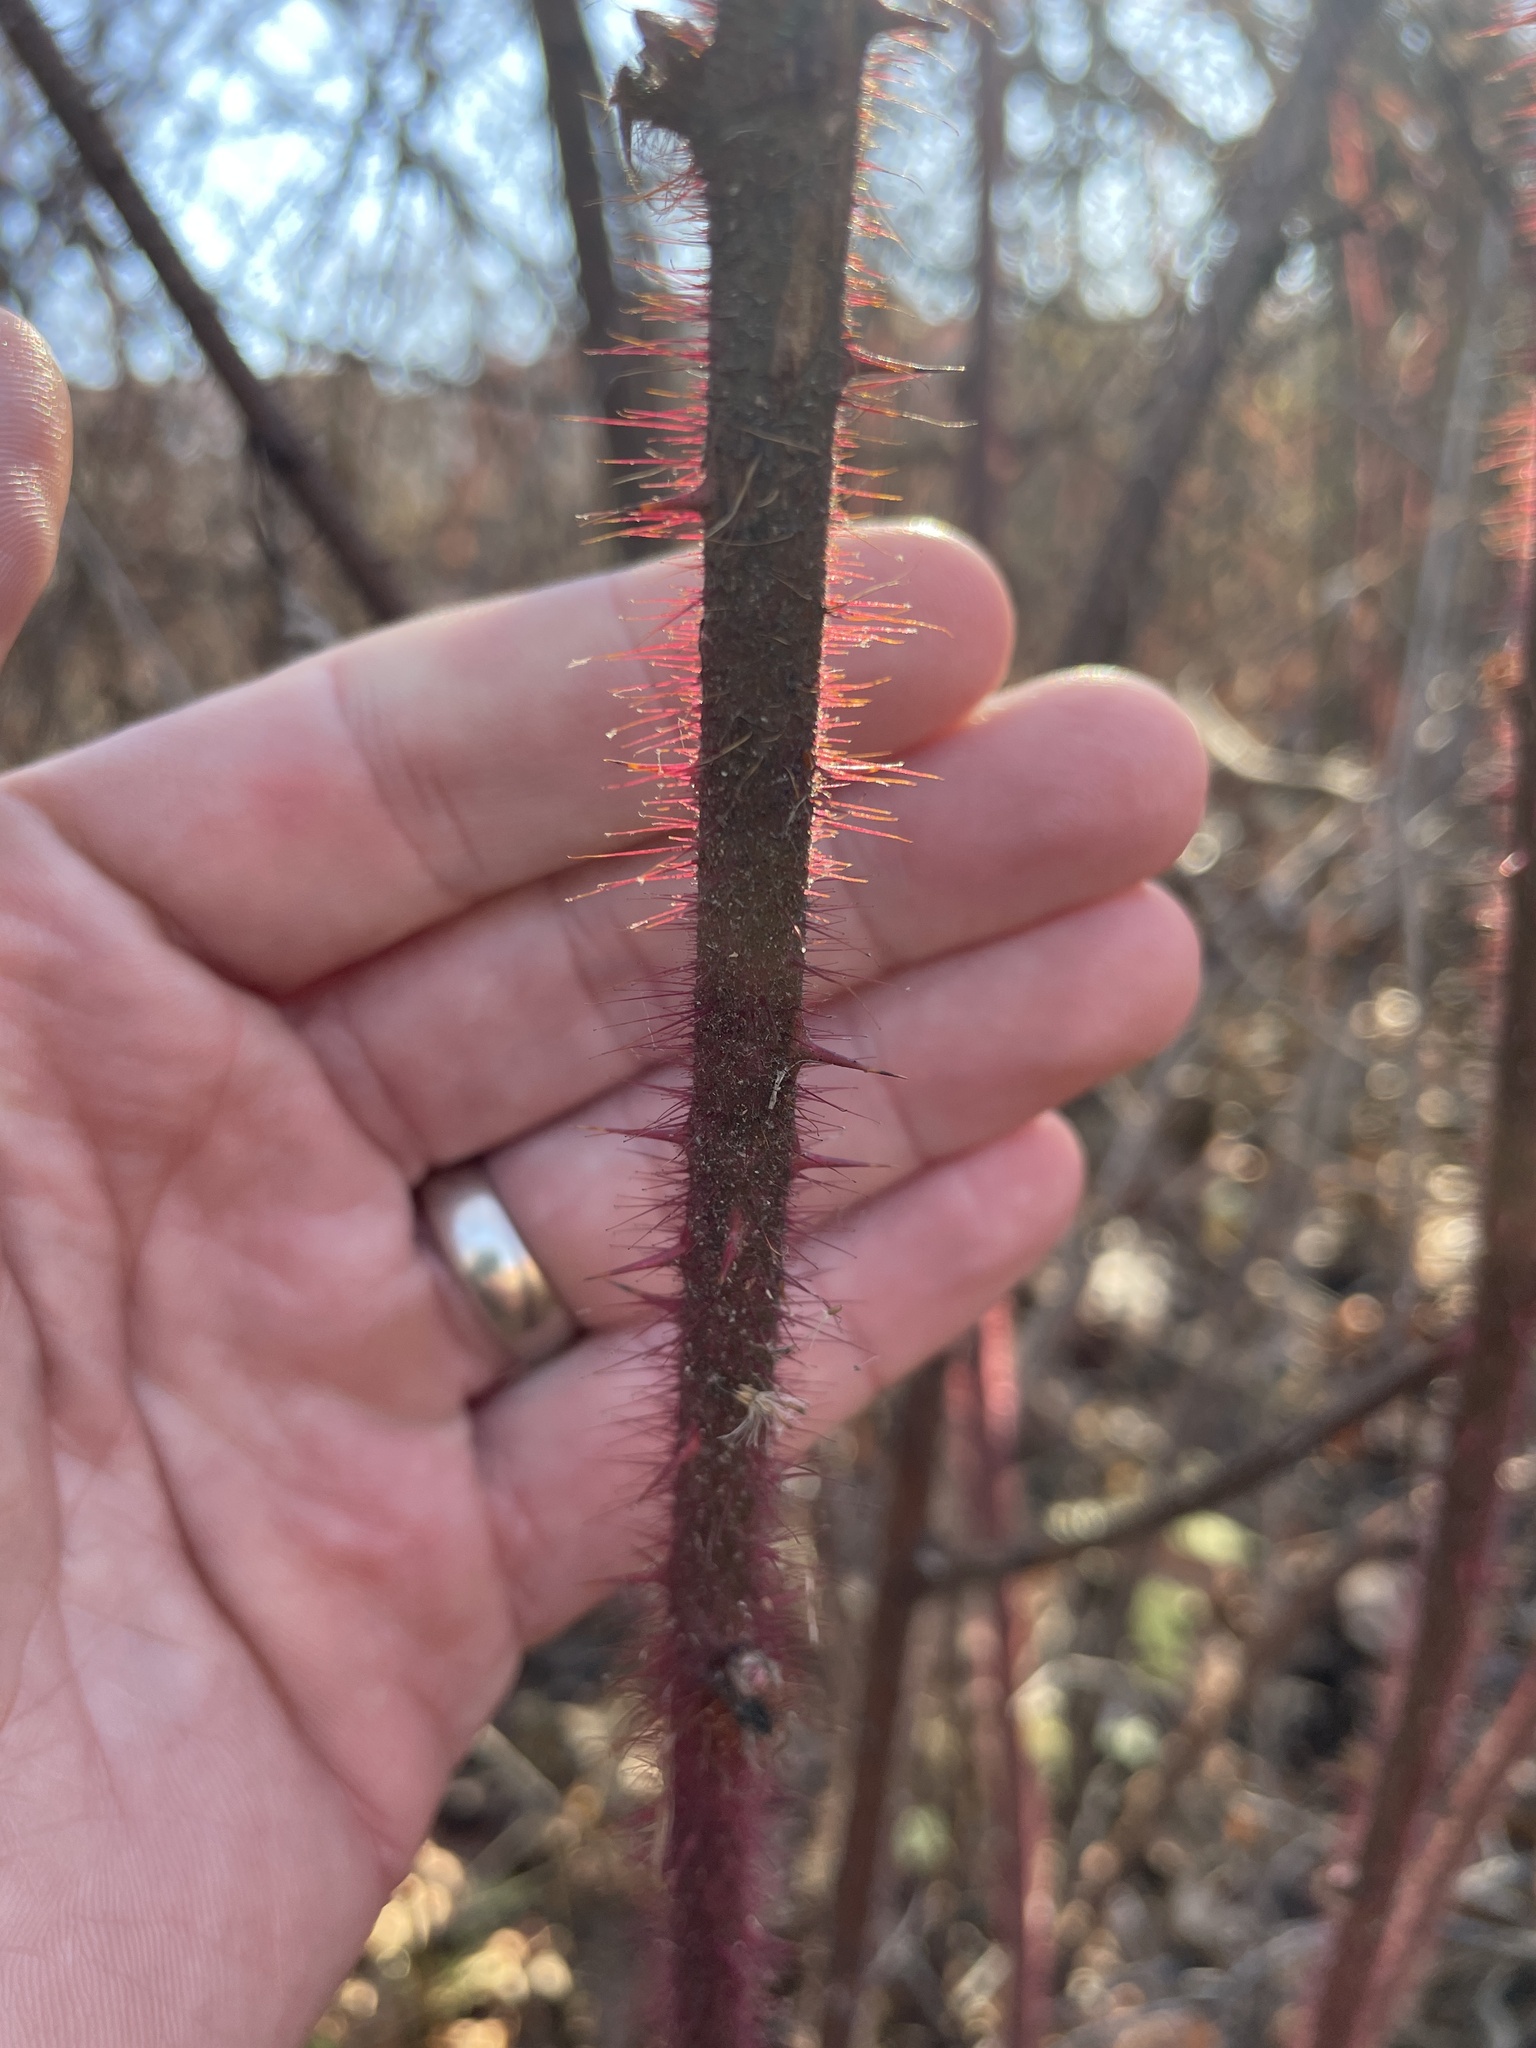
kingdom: Plantae
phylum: Tracheophyta
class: Magnoliopsida
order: Rosales
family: Rosaceae
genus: Rubus
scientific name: Rubus phoenicolasius
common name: Japanese wineberry
